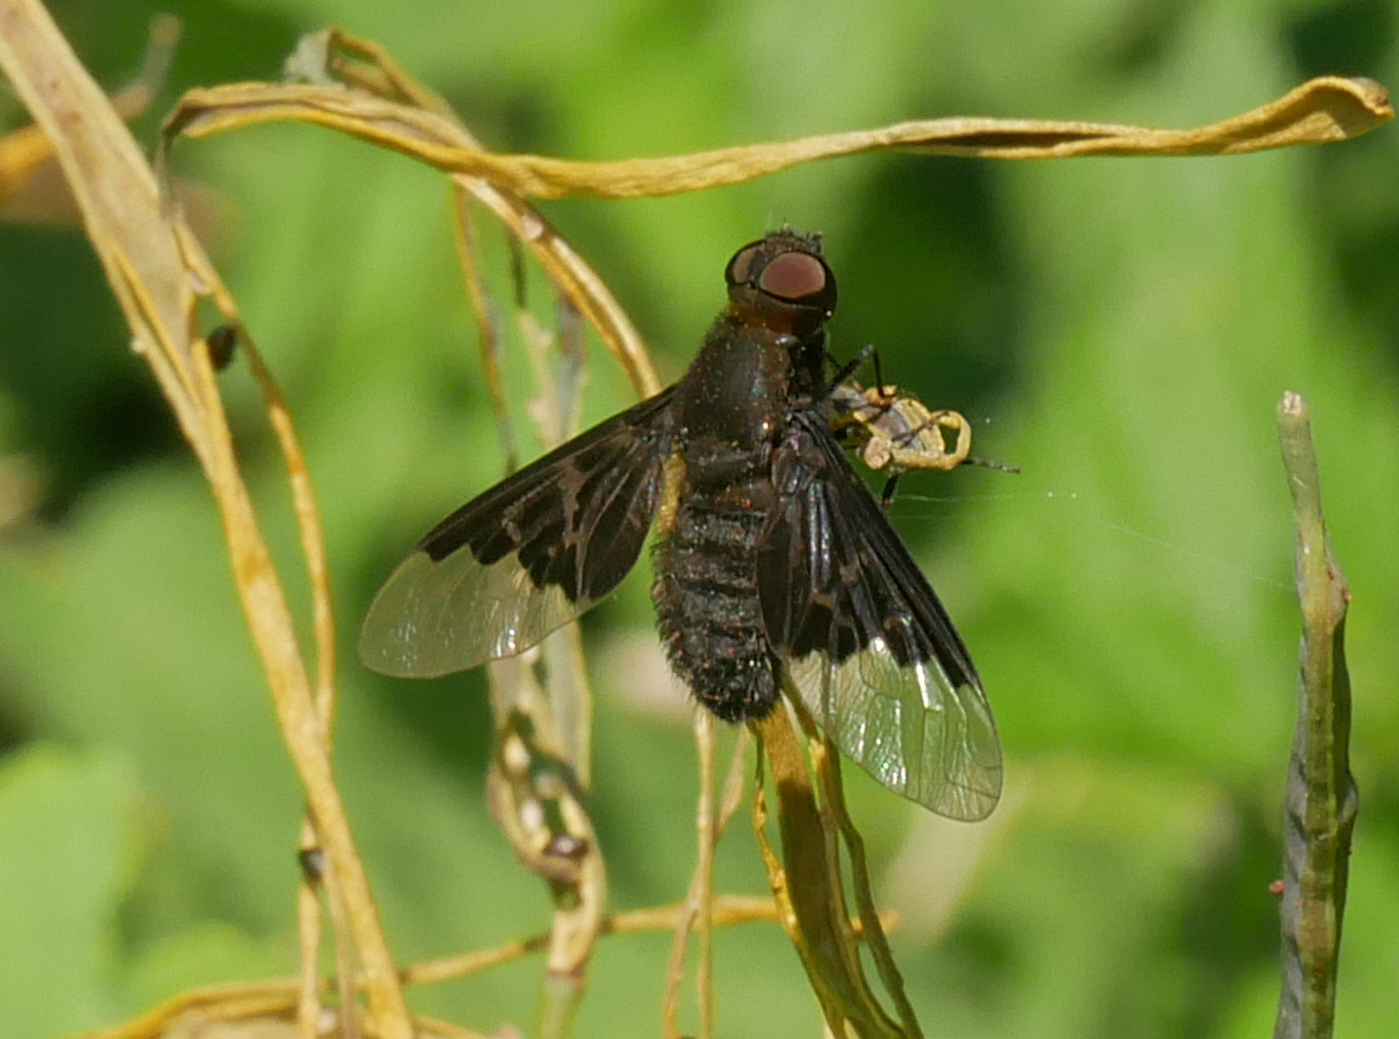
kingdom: Animalia
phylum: Arthropoda
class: Insecta
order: Diptera
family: Bombyliidae
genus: Hemipenthes
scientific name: Hemipenthes morio
